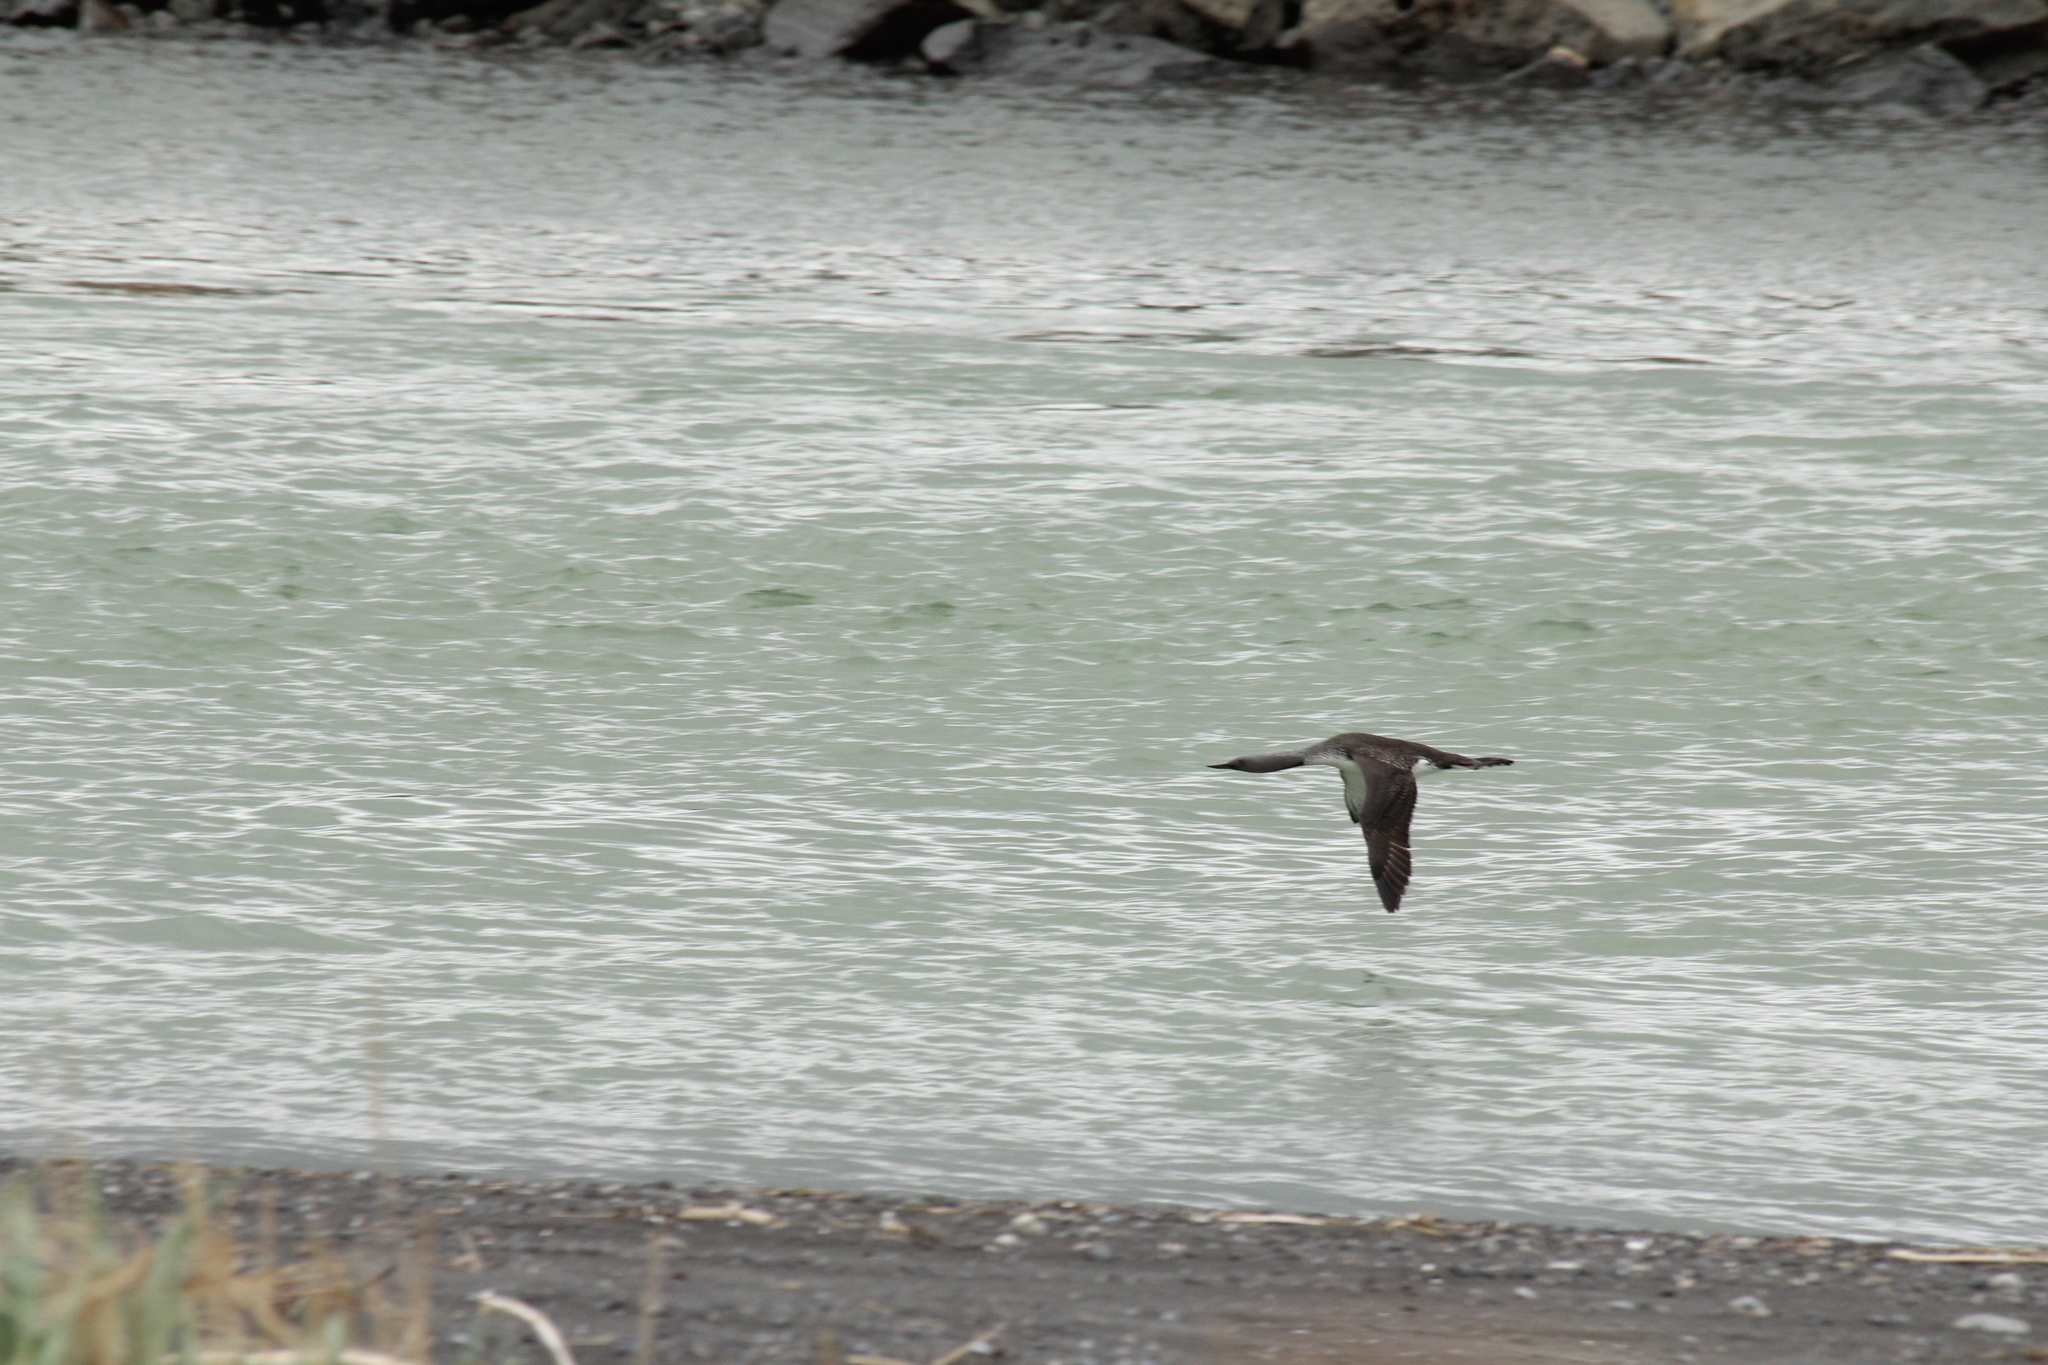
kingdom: Animalia
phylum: Chordata
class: Aves
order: Gaviiformes
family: Gaviidae
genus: Gavia
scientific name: Gavia stellata
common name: Red-throated loon
